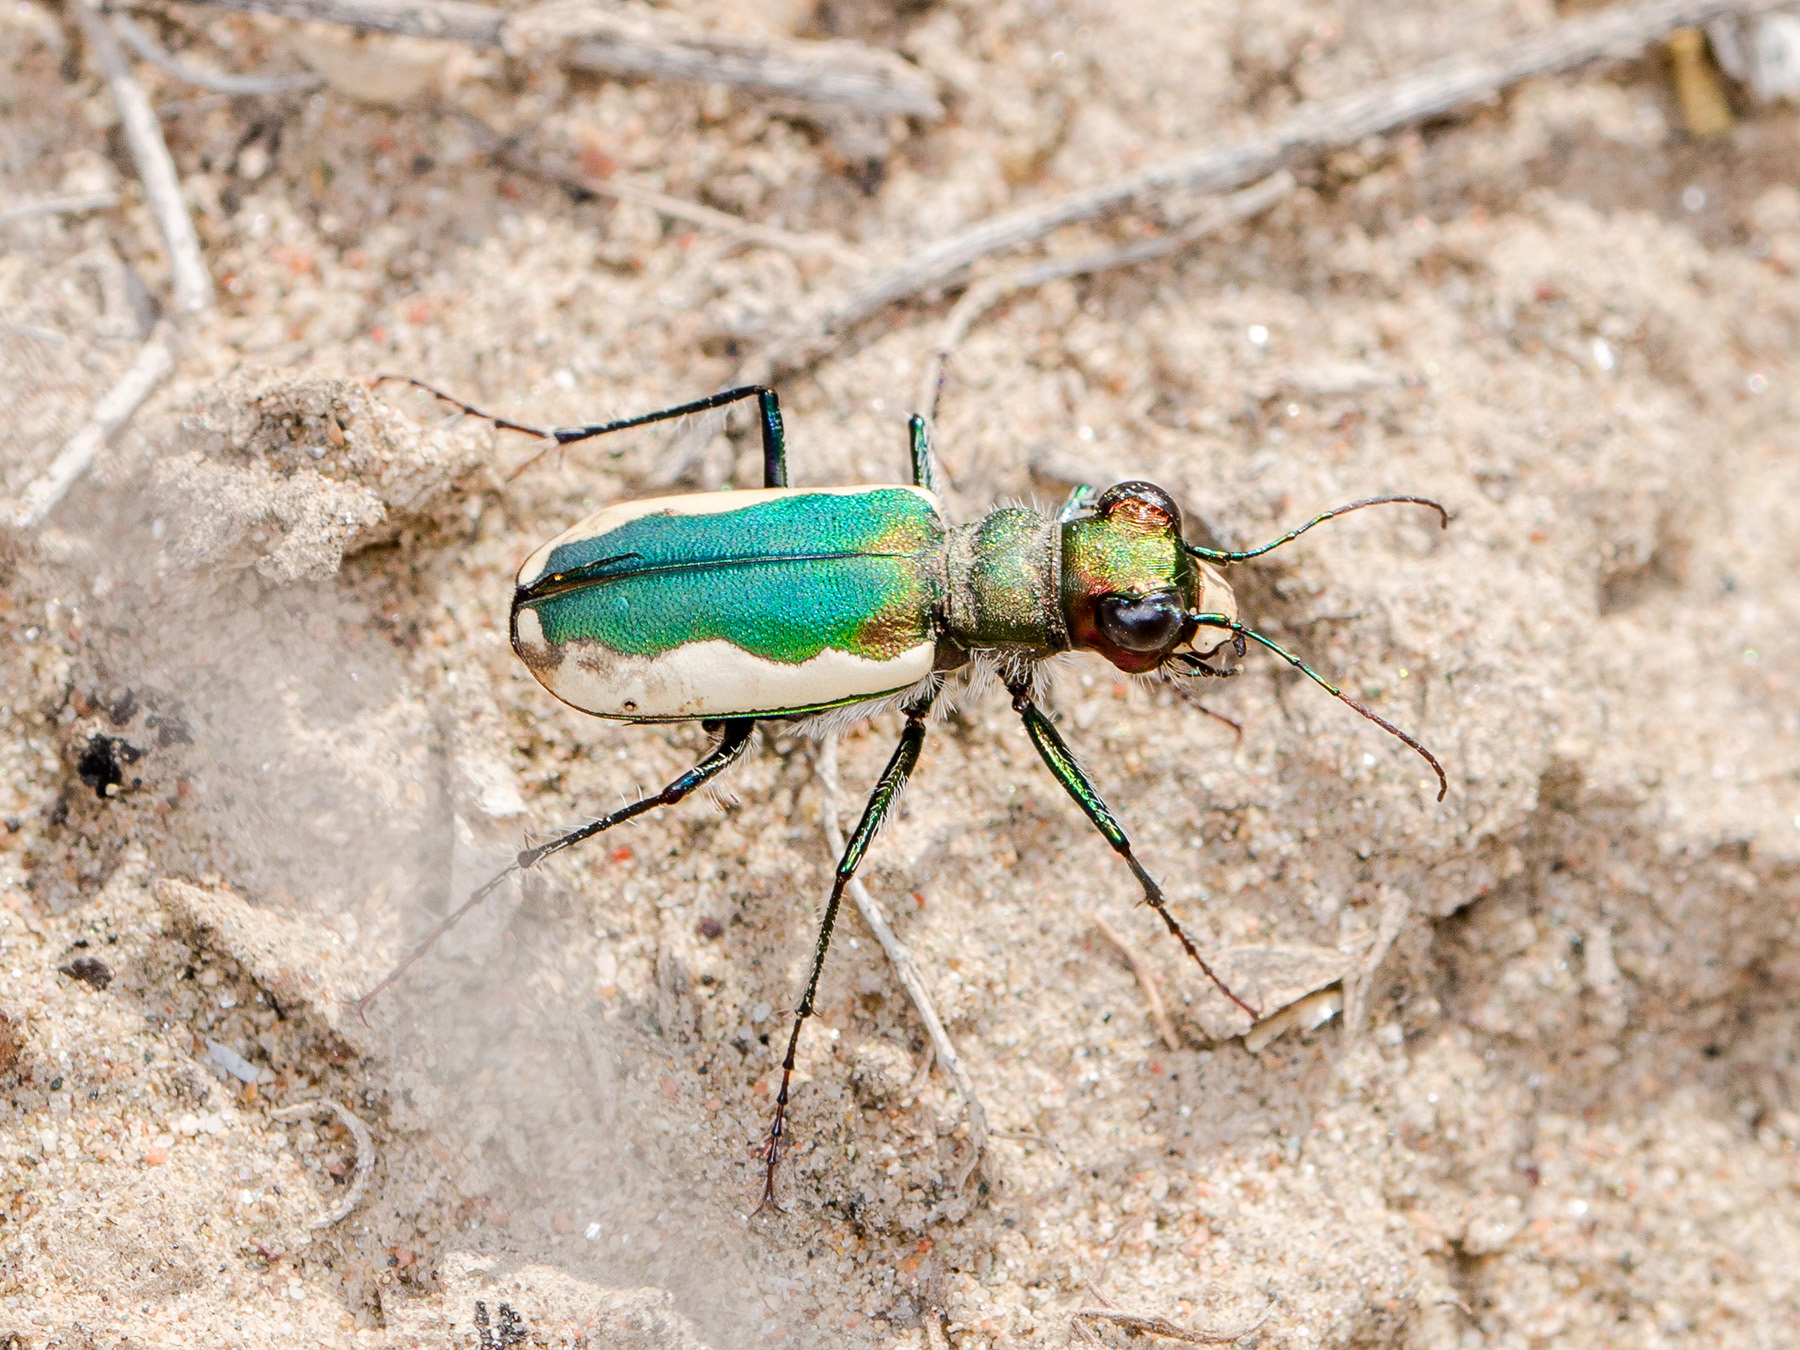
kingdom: Animalia
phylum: Arthropoda
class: Insecta
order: Coleoptera
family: Carabidae
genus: Cicindela
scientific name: Cicindela lacteola
